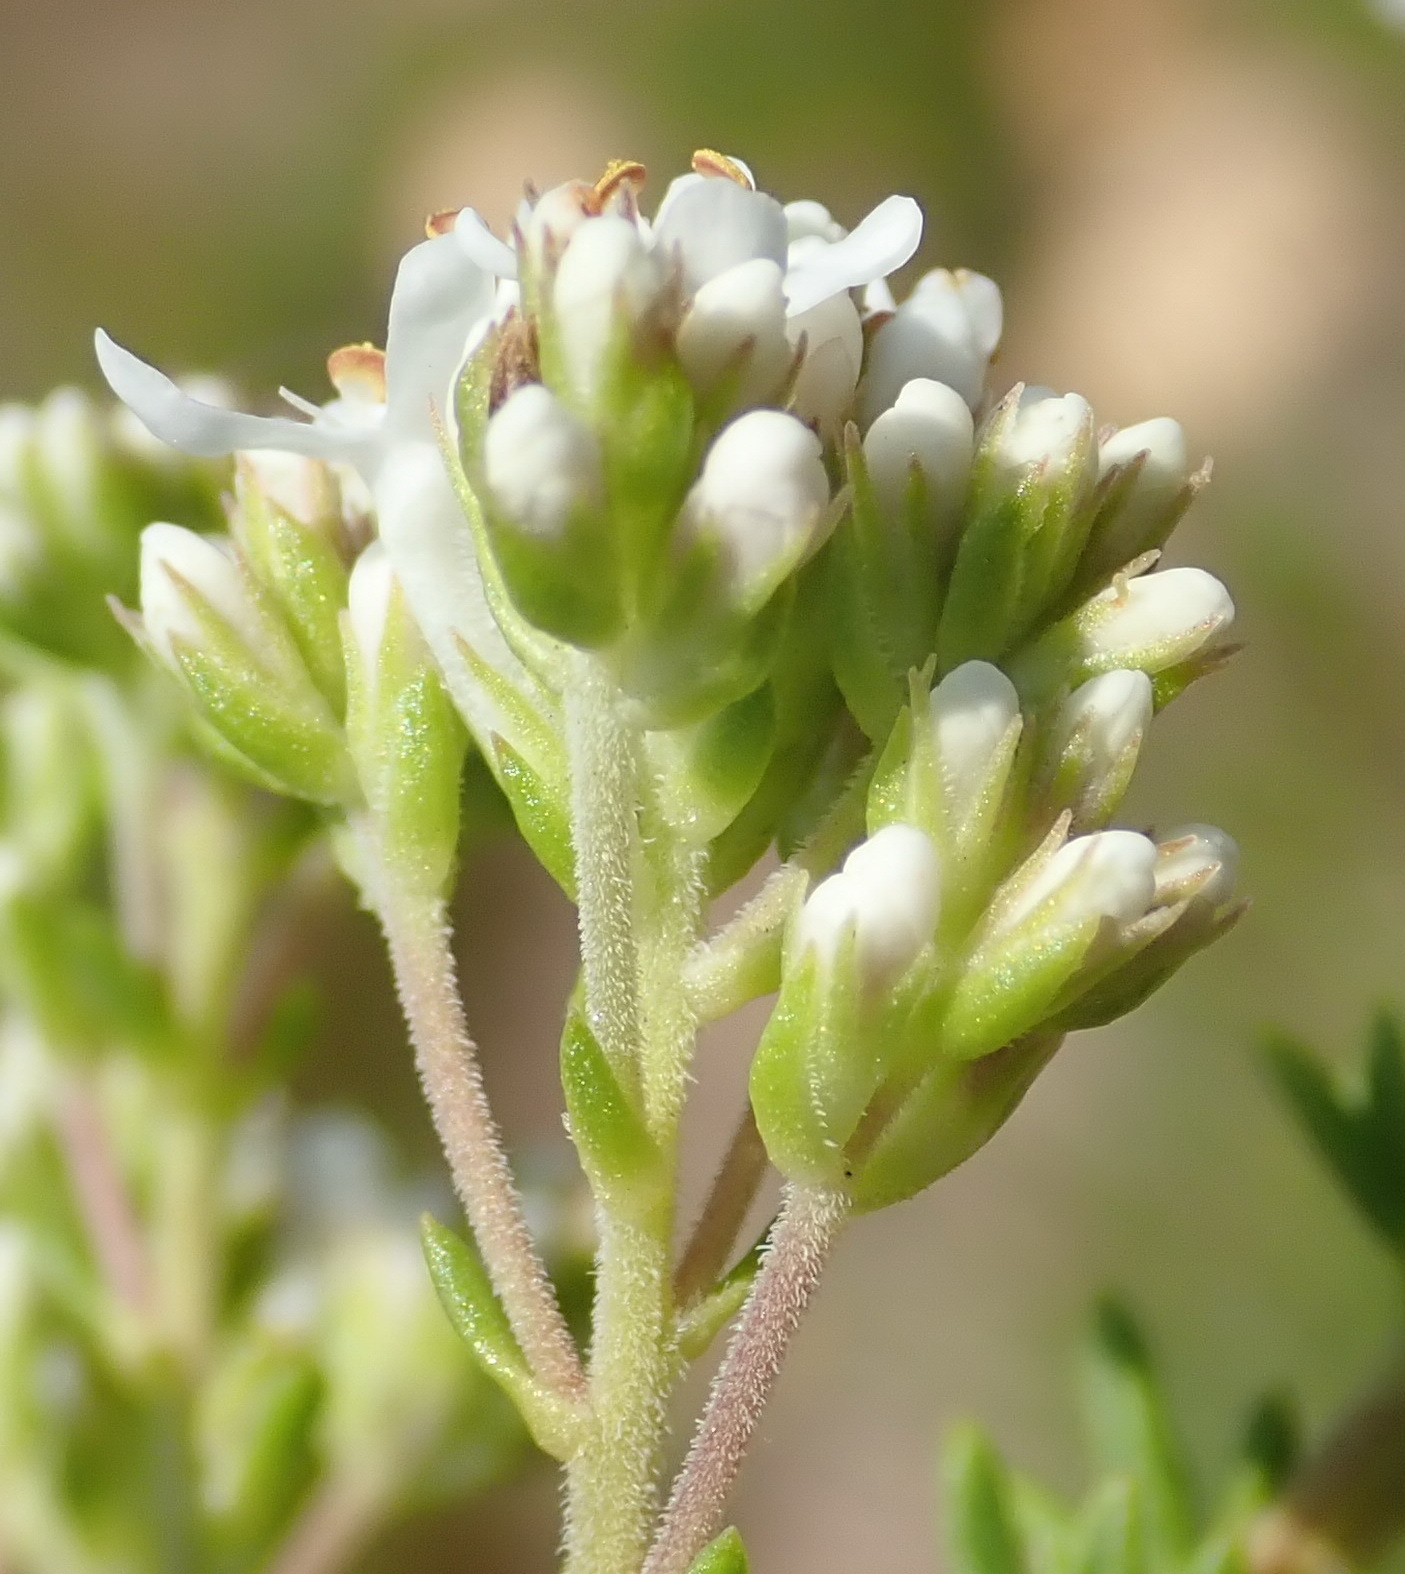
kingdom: Plantae
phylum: Tracheophyta
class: Magnoliopsida
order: Lamiales
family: Scrophulariaceae
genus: Selago
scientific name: Selago corymbosa
